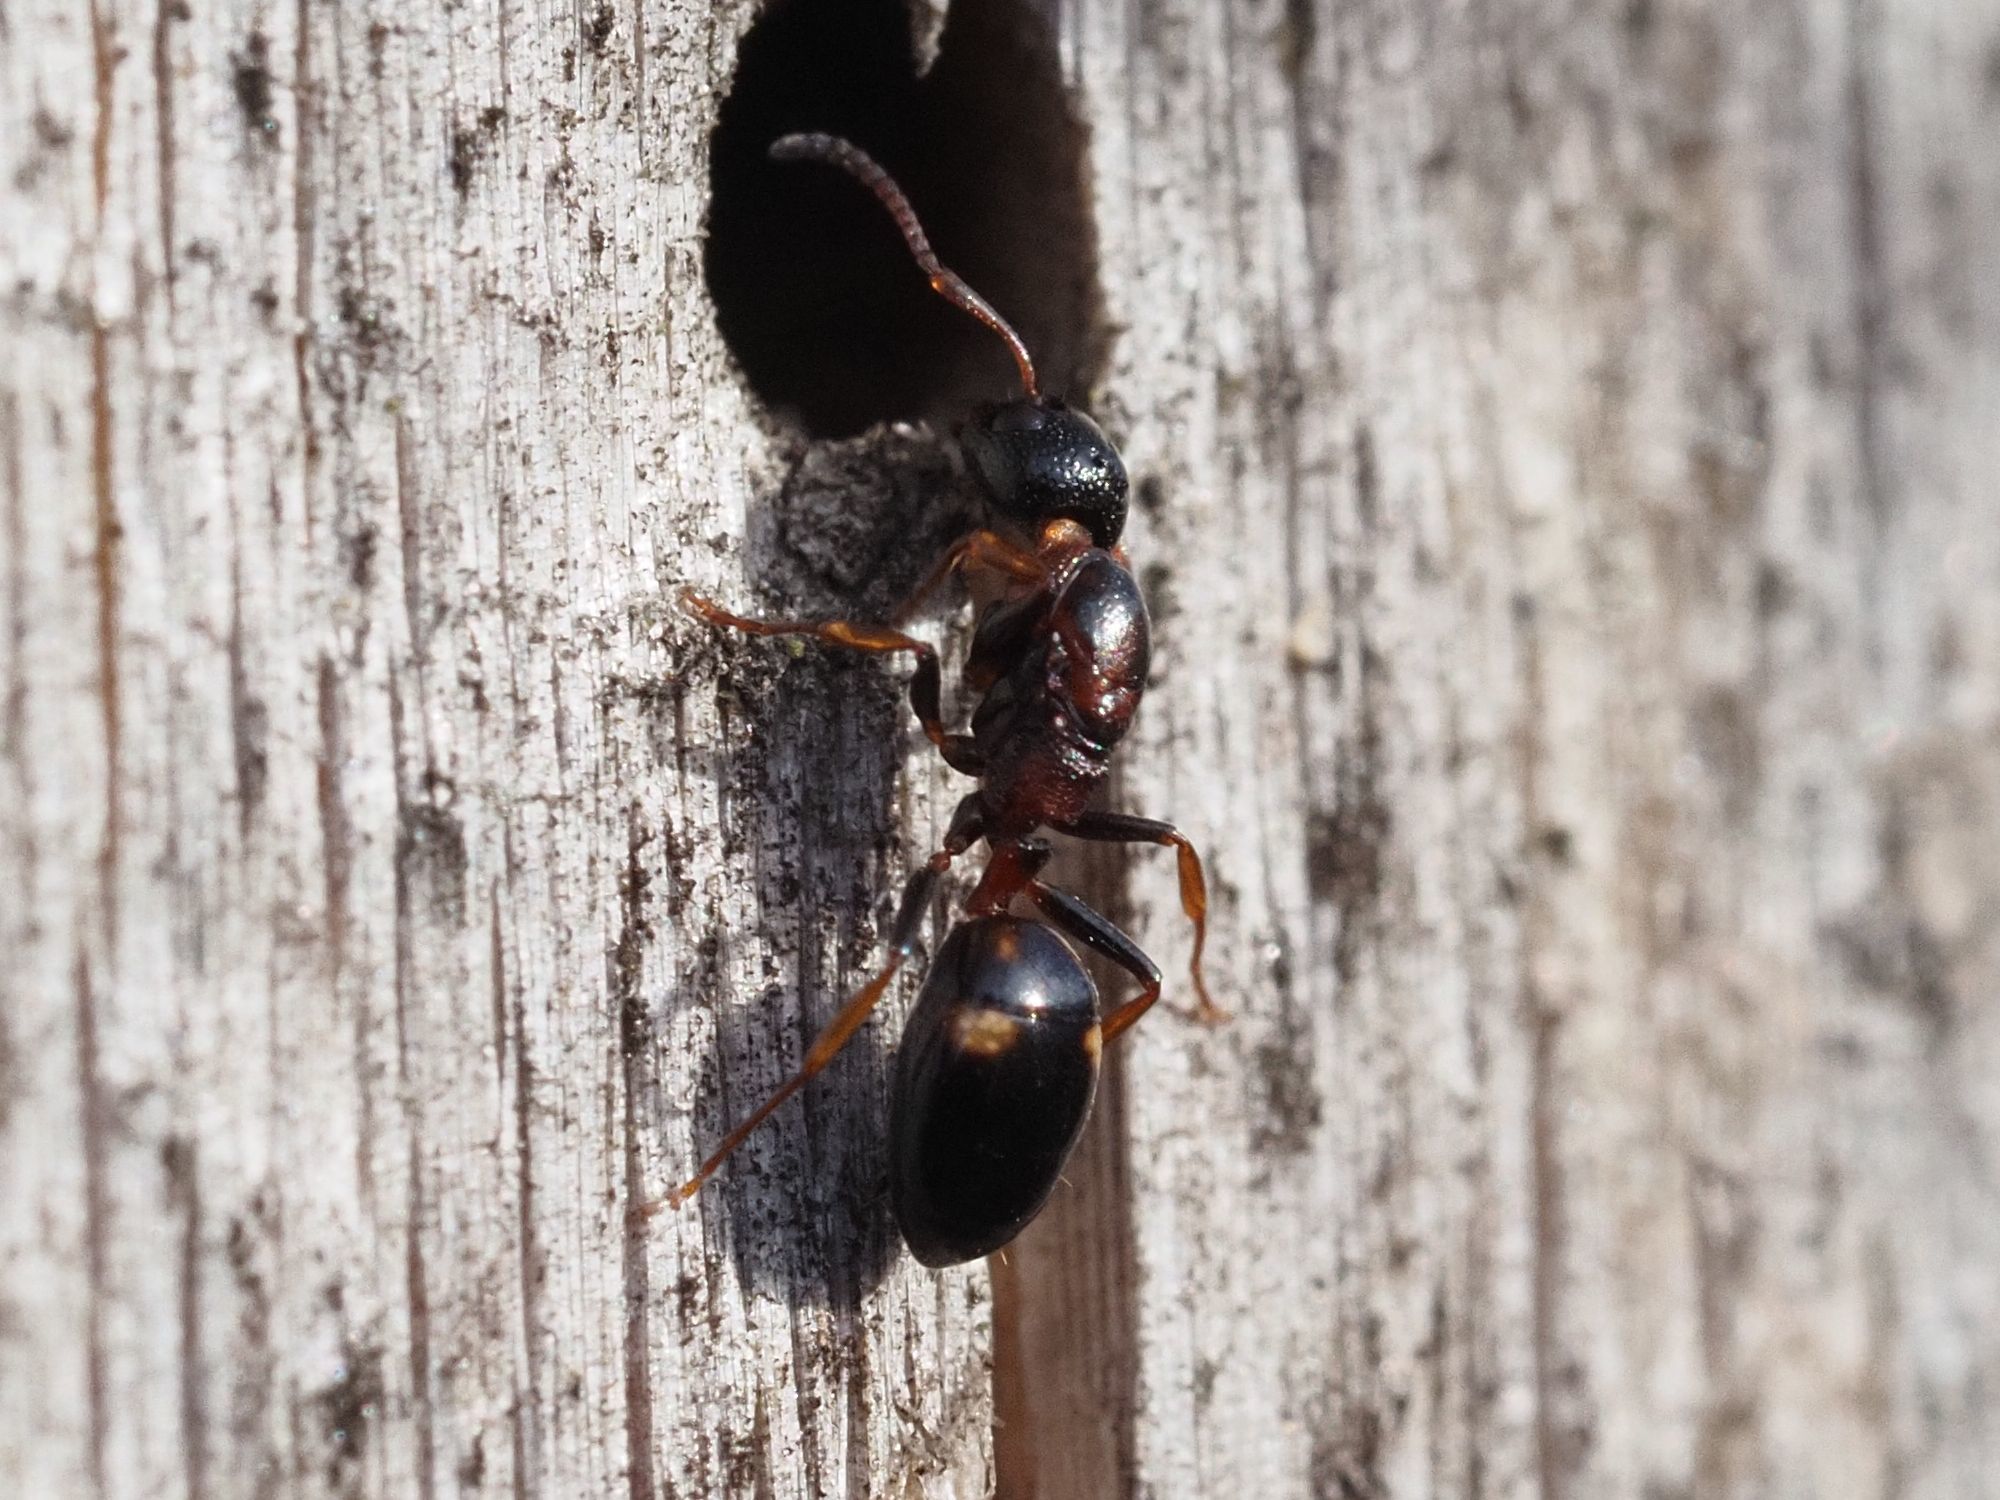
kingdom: Animalia
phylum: Arthropoda
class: Insecta
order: Hymenoptera
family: Formicidae
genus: Dolichoderus
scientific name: Dolichoderus quadripunctatus
